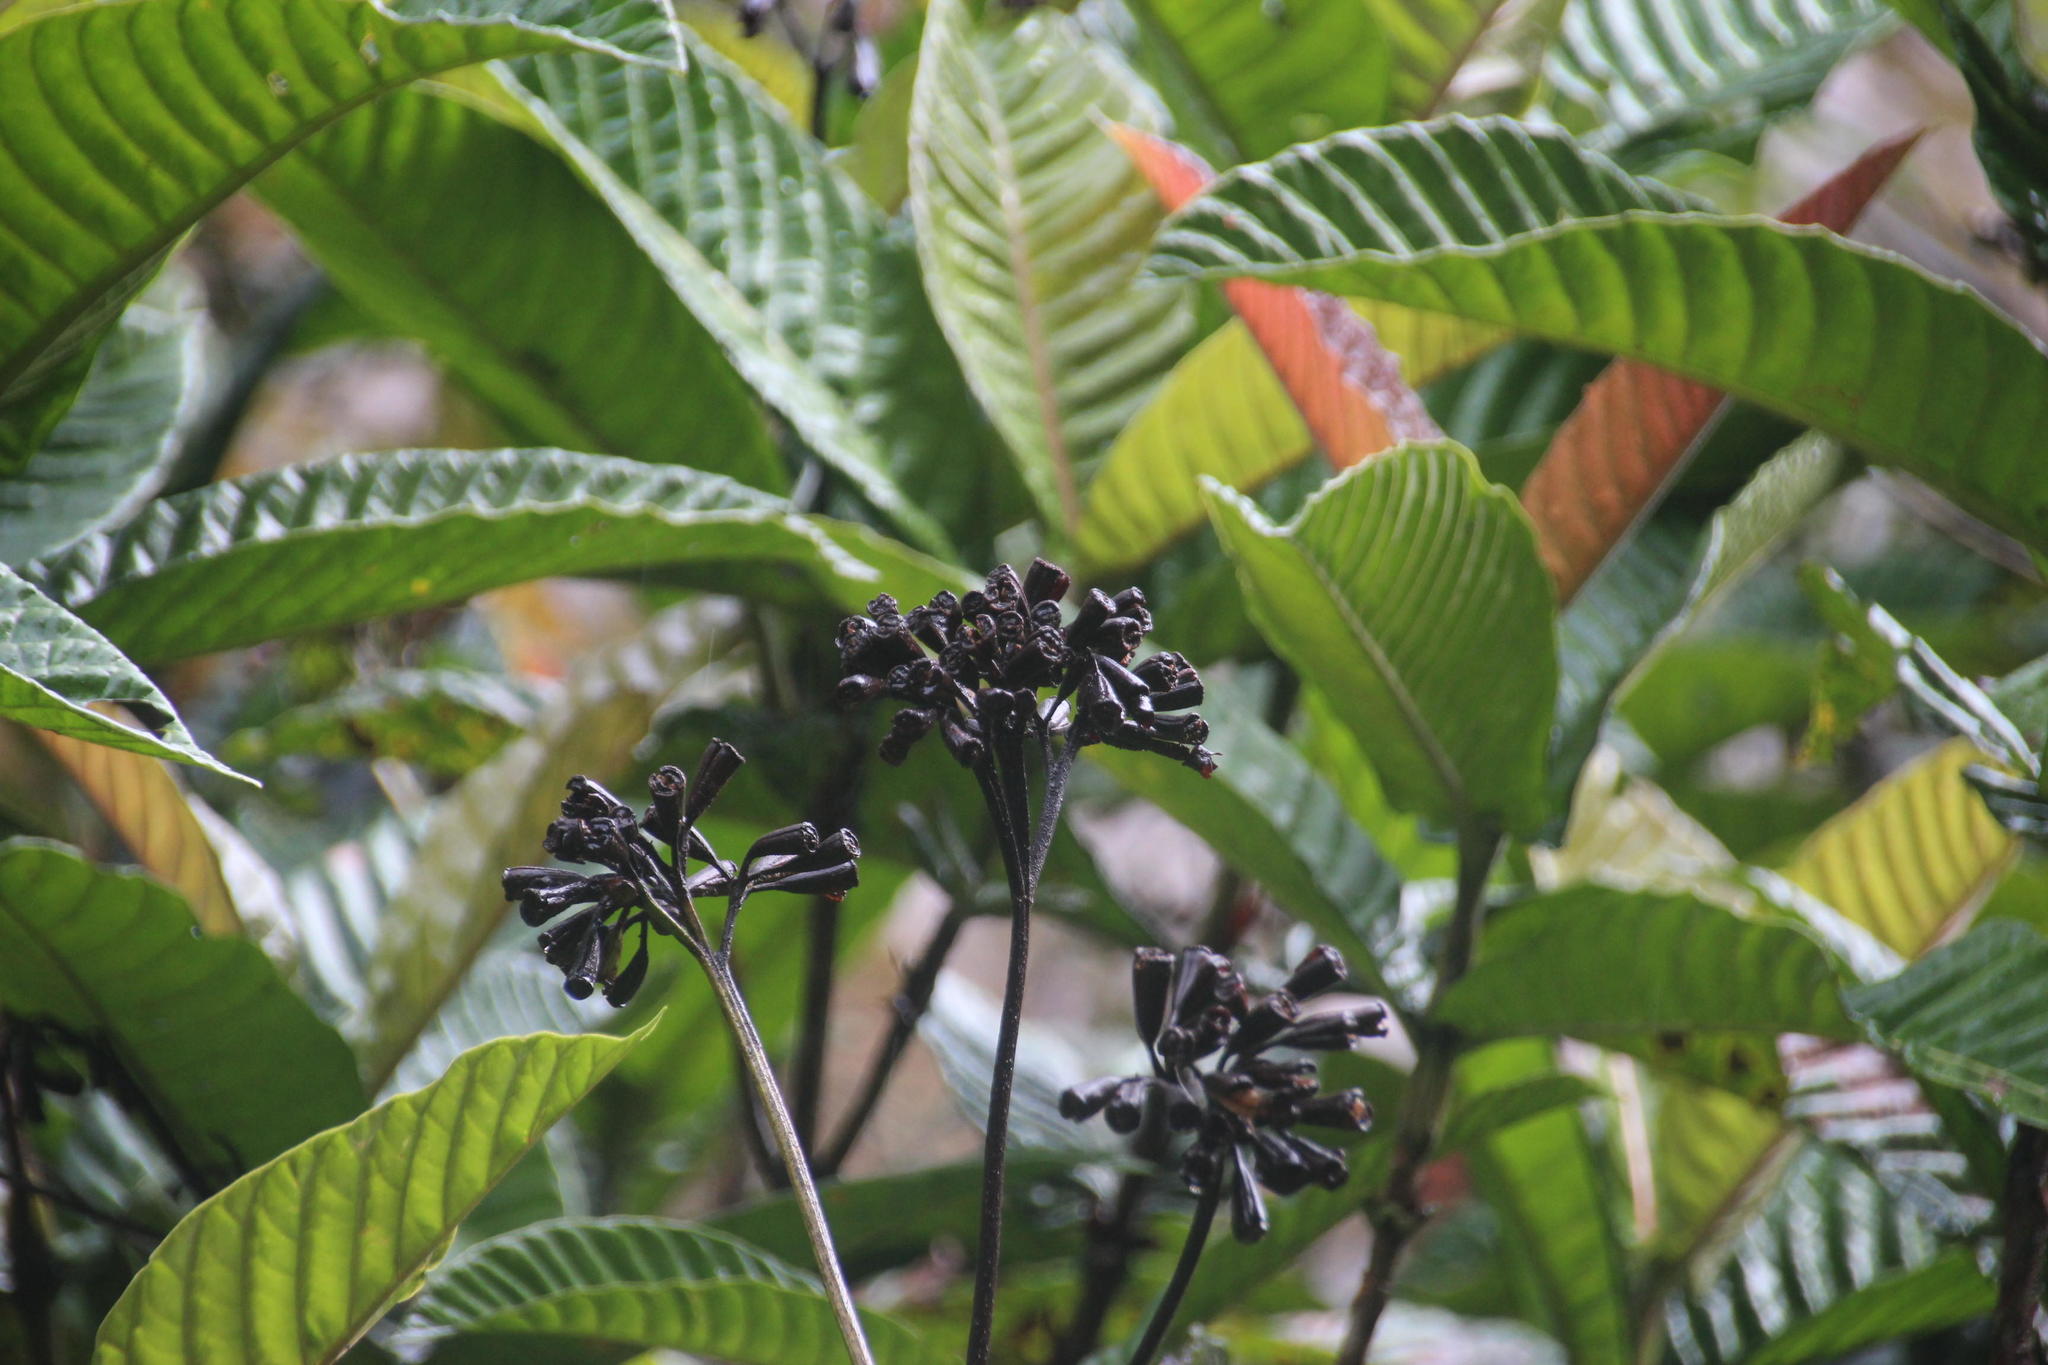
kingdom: Plantae
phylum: Tracheophyta
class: Magnoliopsida
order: Gentianales
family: Rubiaceae
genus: Condaminea
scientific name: Condaminea corymbosa
